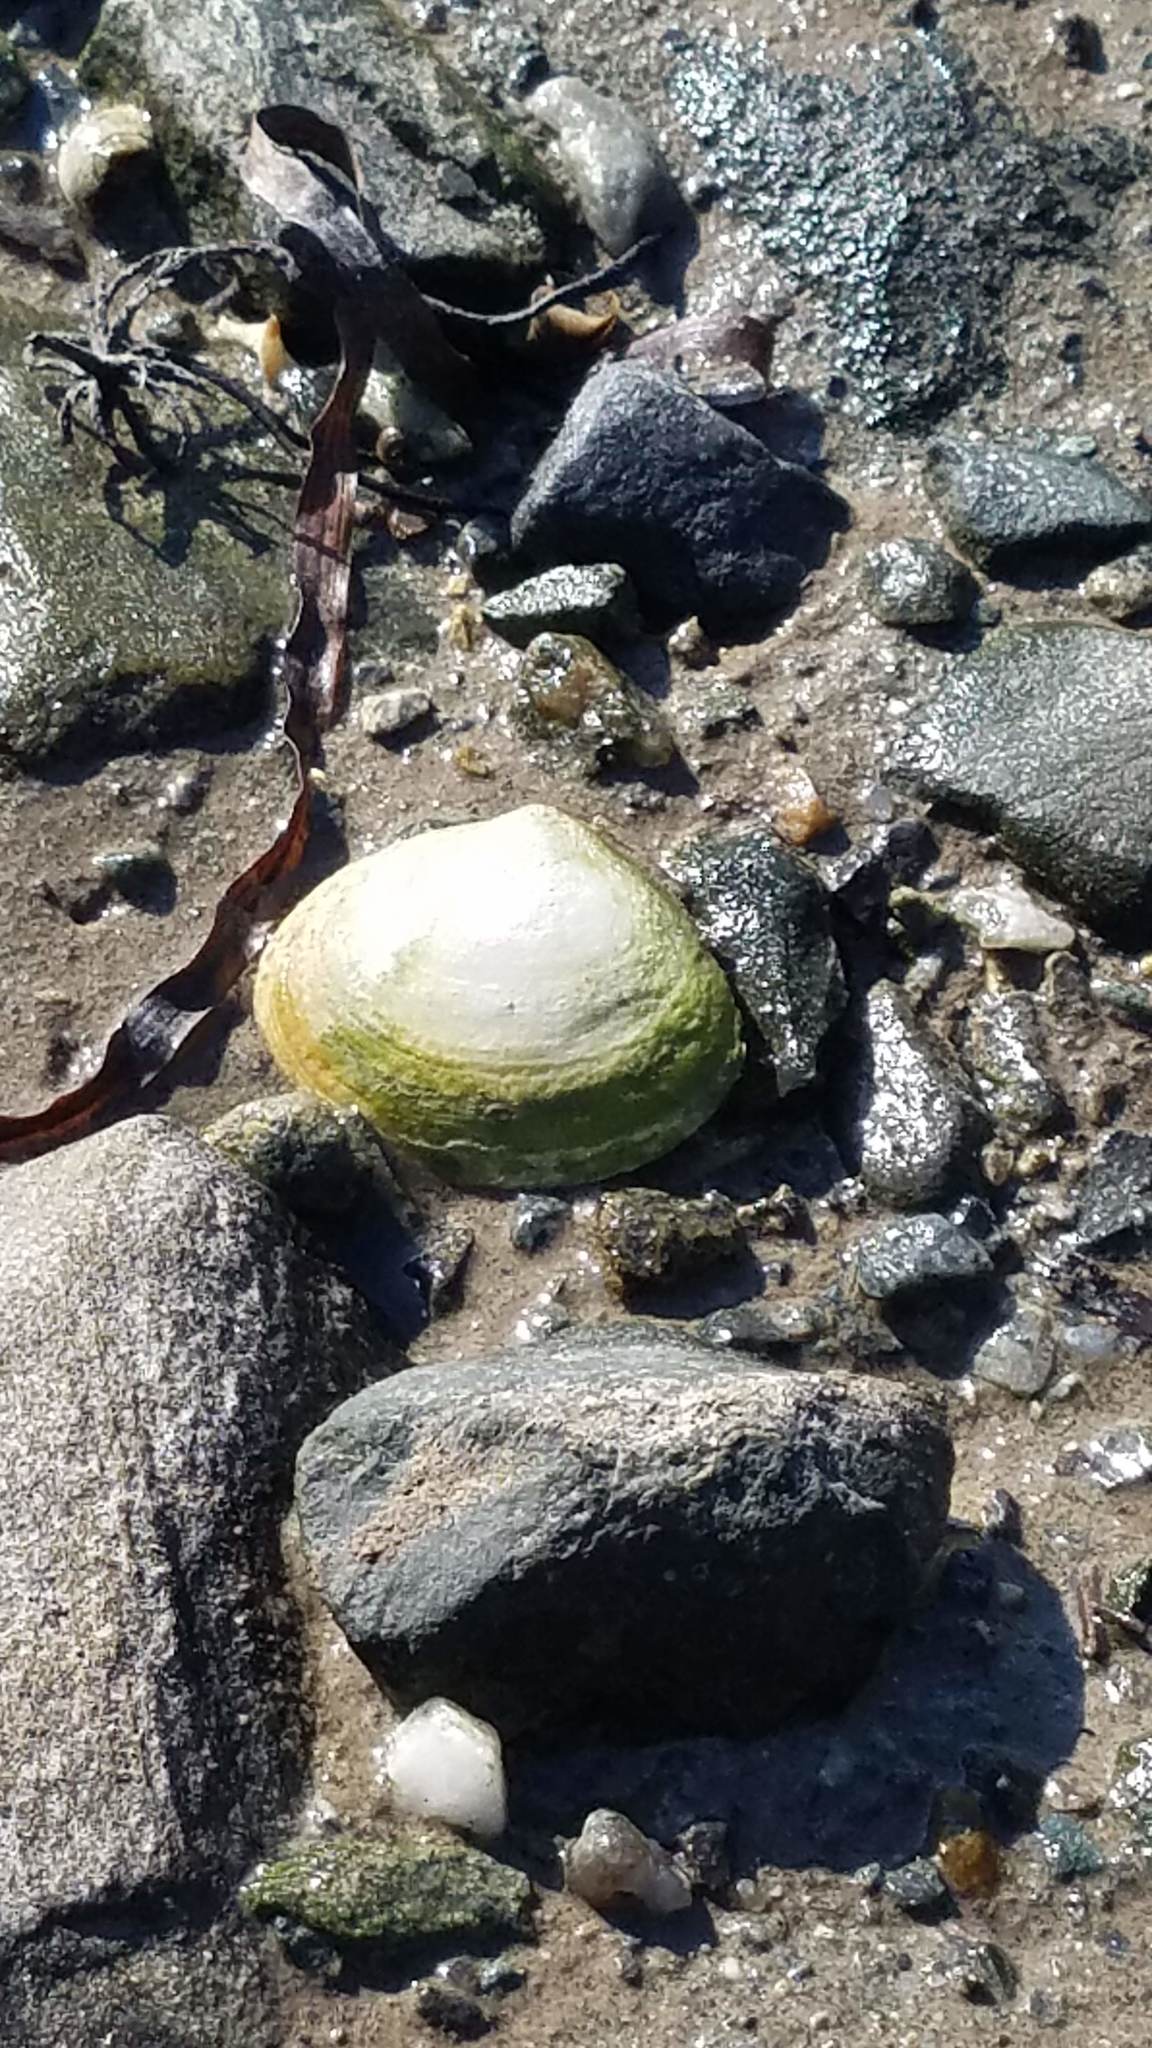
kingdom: Animalia
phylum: Mollusca
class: Bivalvia
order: Myida
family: Myidae
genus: Mya
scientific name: Mya arenaria
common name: Soft-shelled clam
